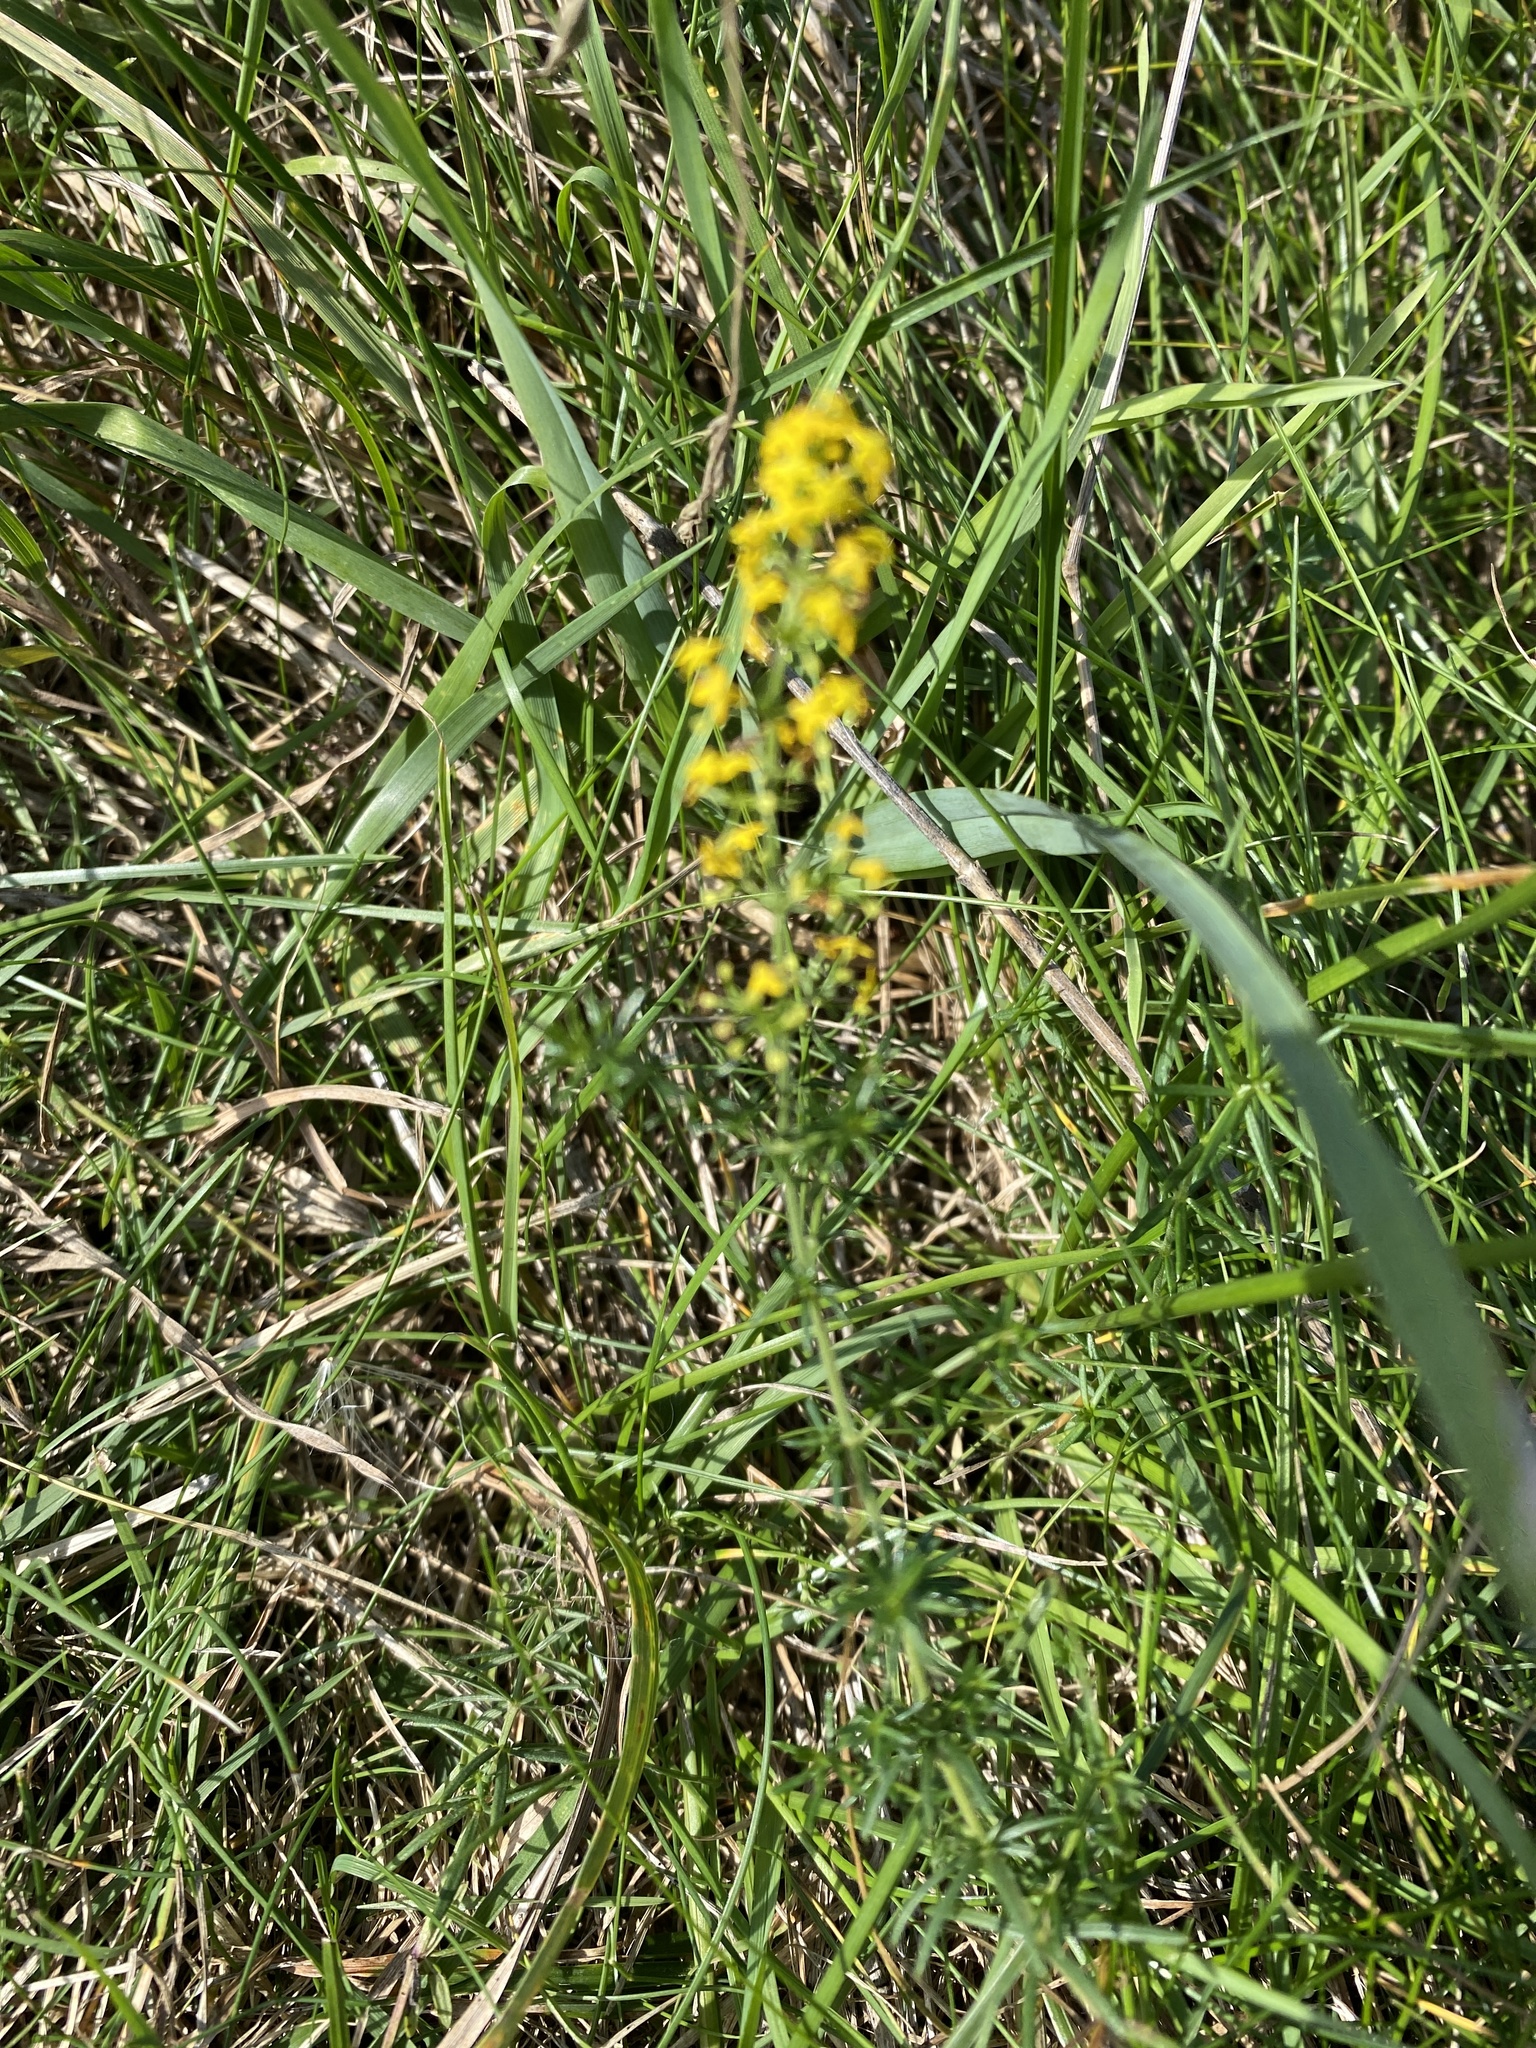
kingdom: Plantae
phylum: Tracheophyta
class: Magnoliopsida
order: Gentianales
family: Rubiaceae
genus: Galium
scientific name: Galium verum
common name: Lady's bedstraw
